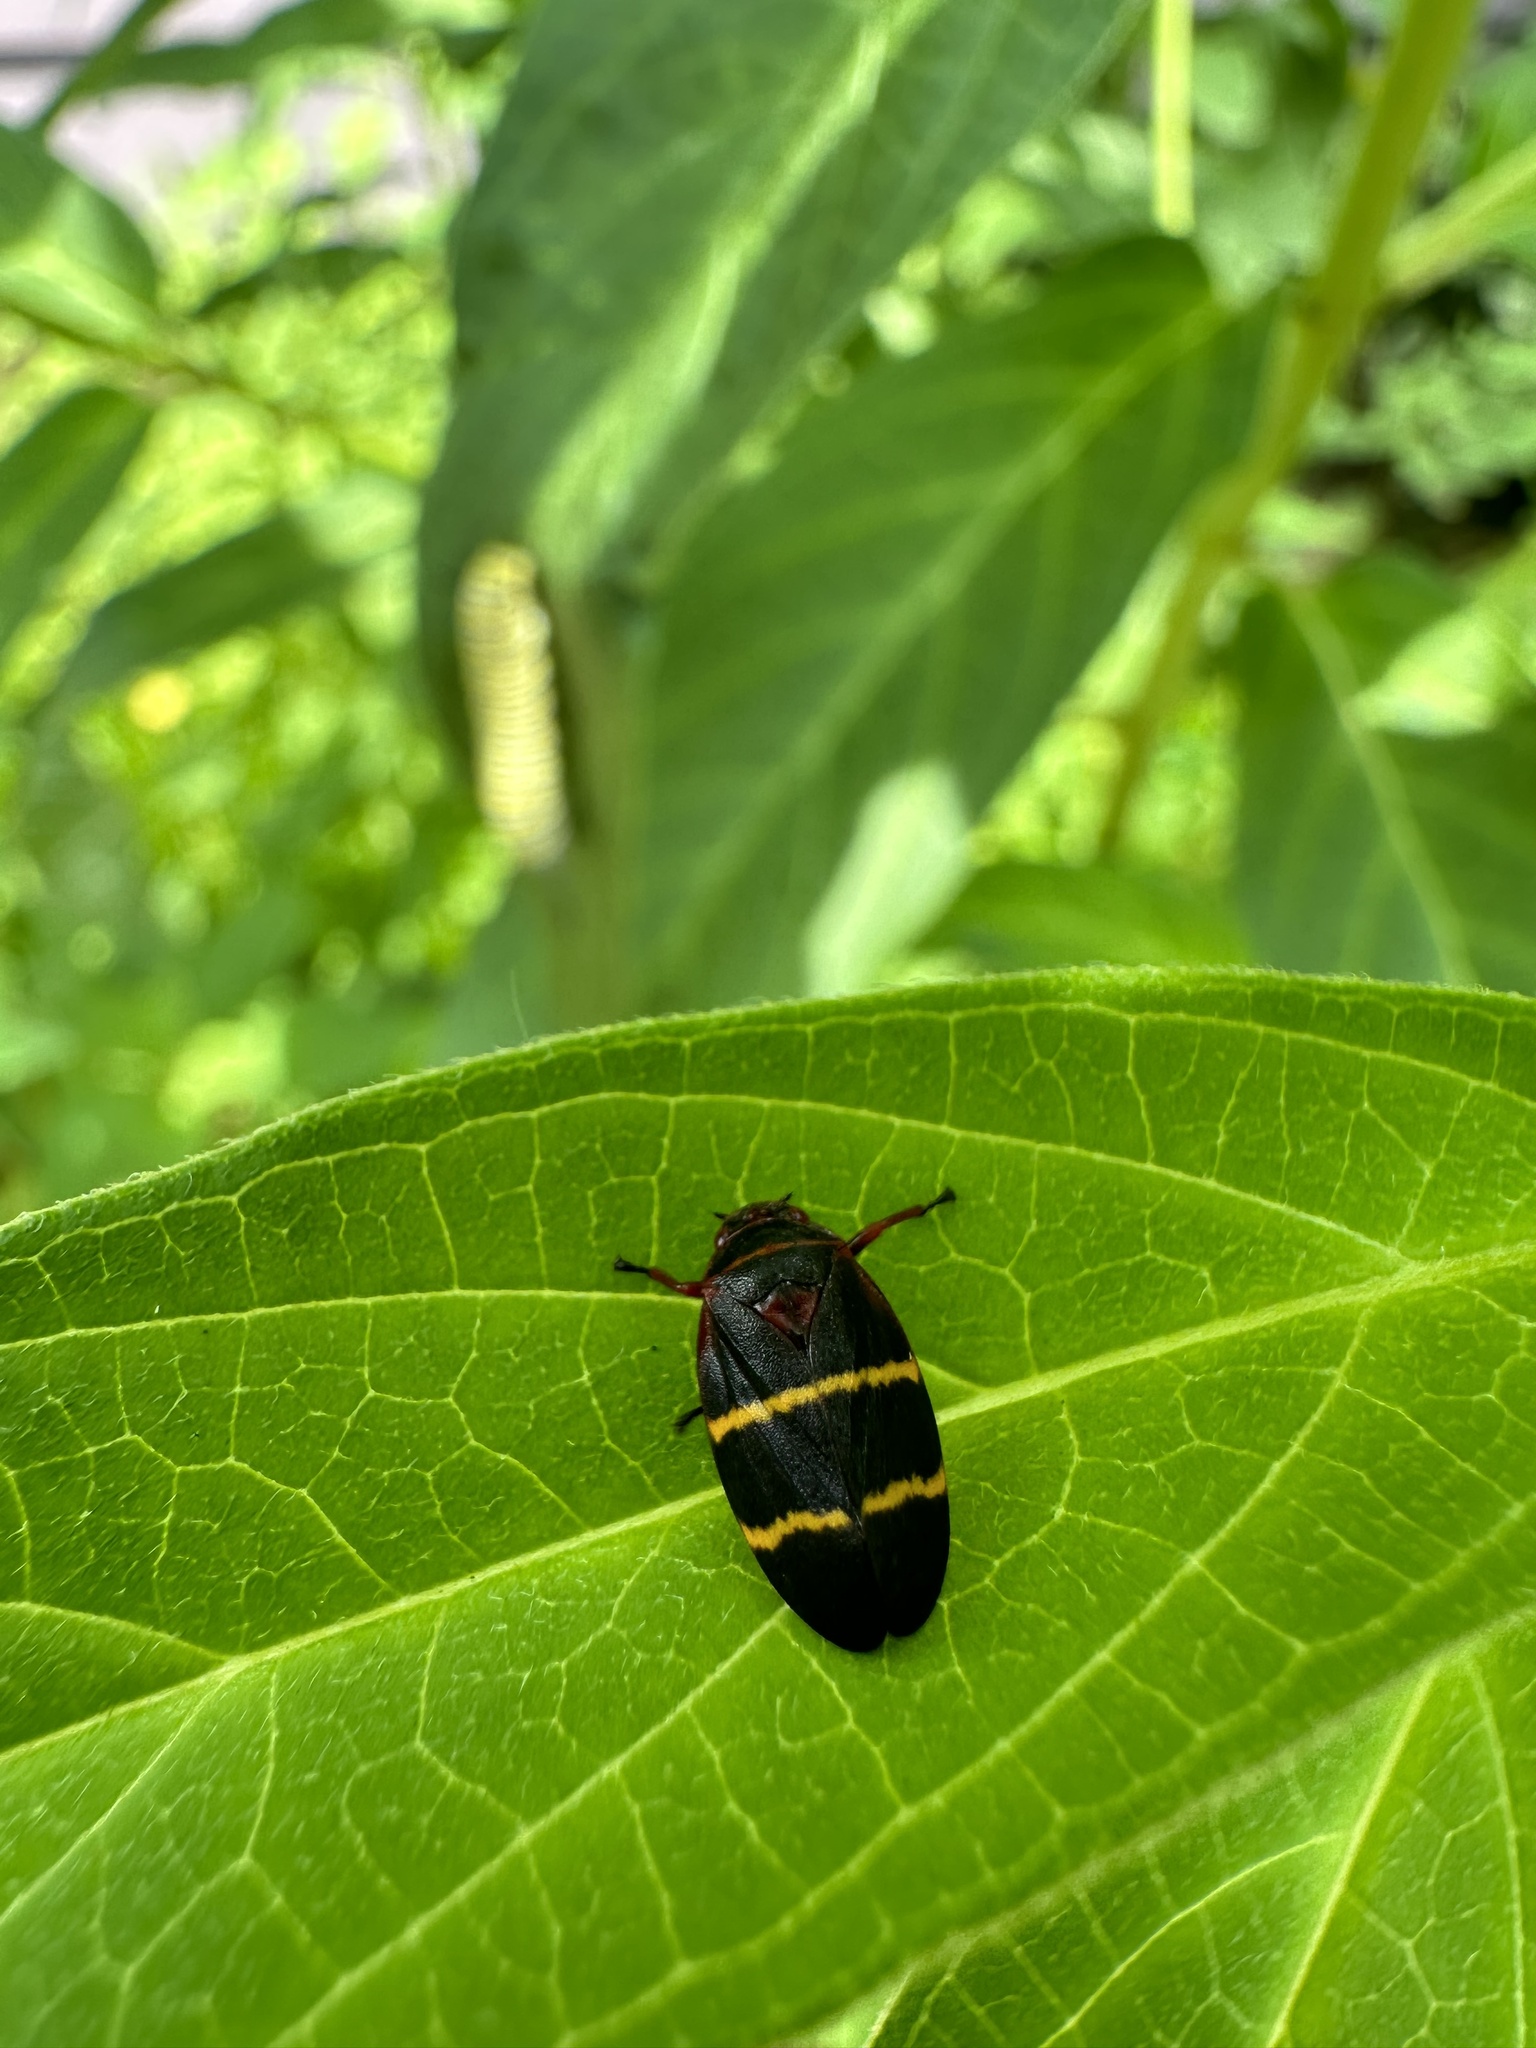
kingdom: Animalia
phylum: Arthropoda
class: Insecta
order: Hemiptera
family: Cercopidae
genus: Prosapia
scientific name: Prosapia bicincta
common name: Twolined spittlebug
